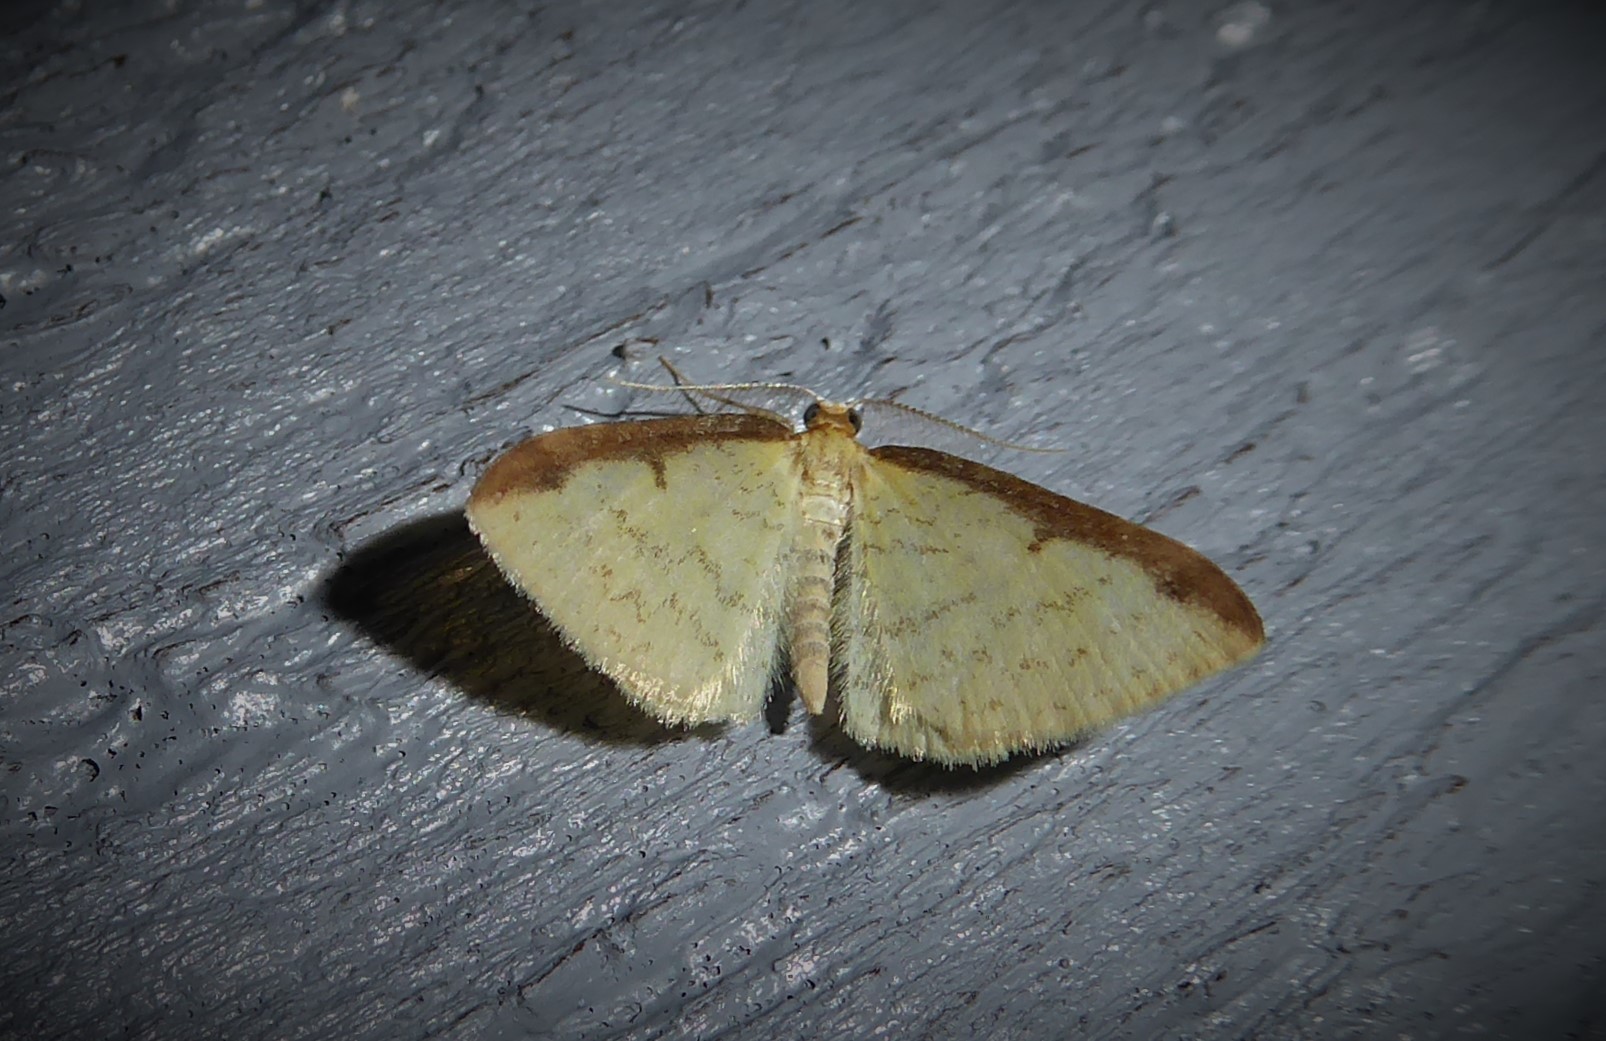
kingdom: Animalia
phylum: Arthropoda
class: Insecta
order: Lepidoptera
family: Geometridae
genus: Epiphryne
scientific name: Epiphryne undosata
